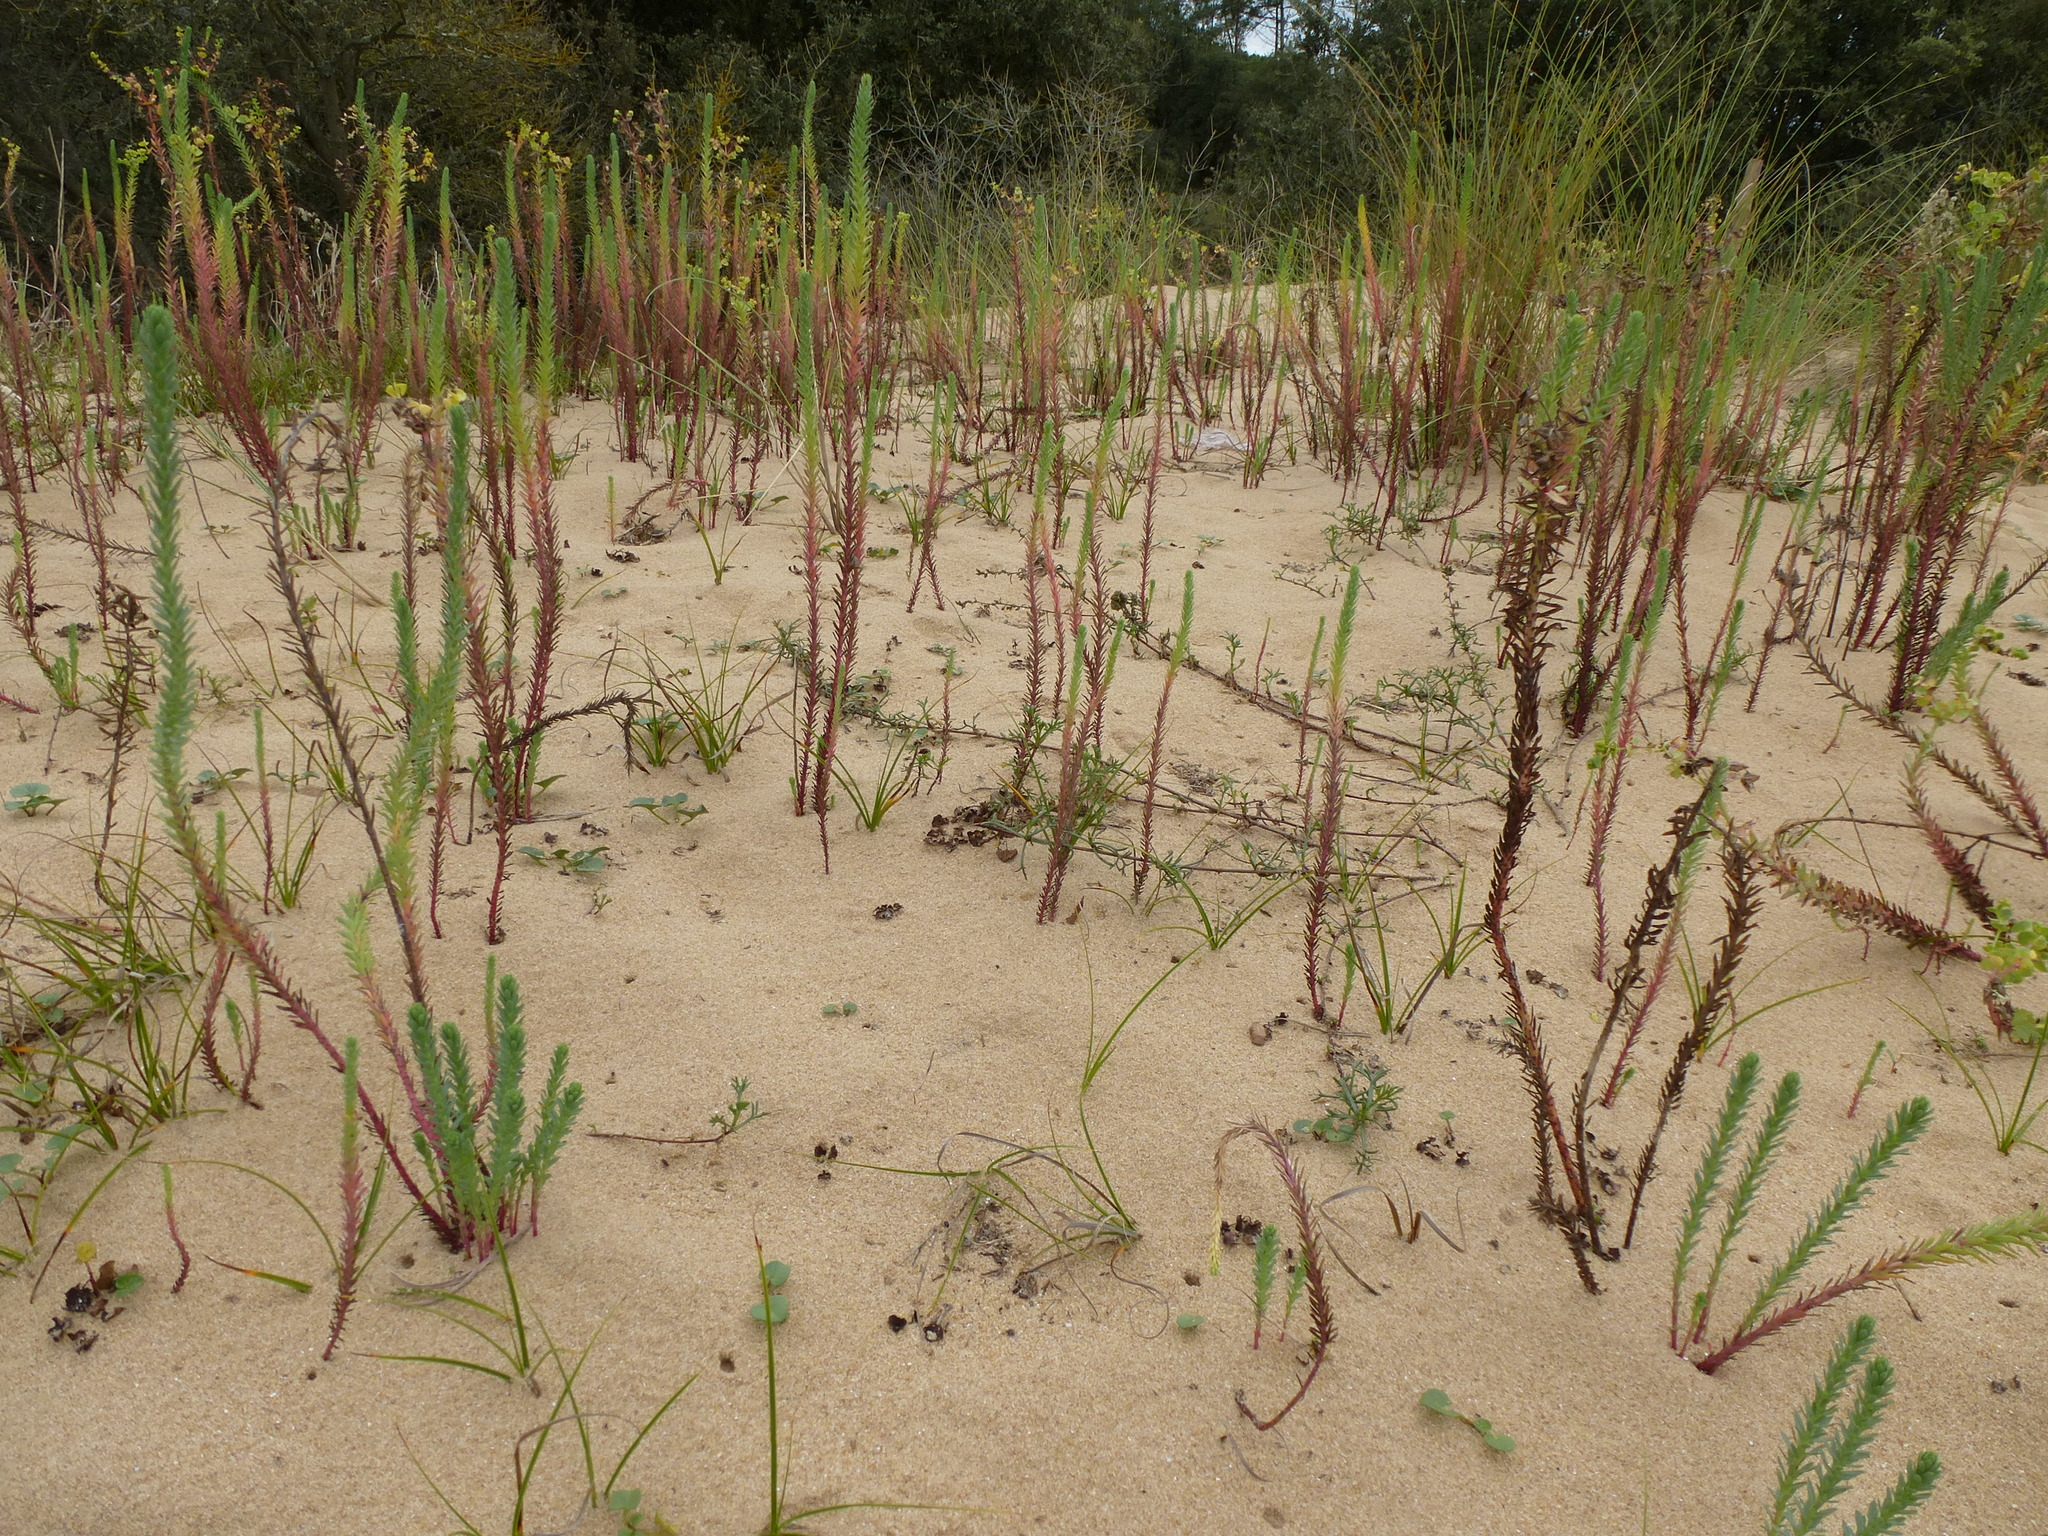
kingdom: Plantae
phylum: Tracheophyta
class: Magnoliopsida
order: Malpighiales
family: Euphorbiaceae
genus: Euphorbia
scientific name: Euphorbia paralias
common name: Sea spurge
